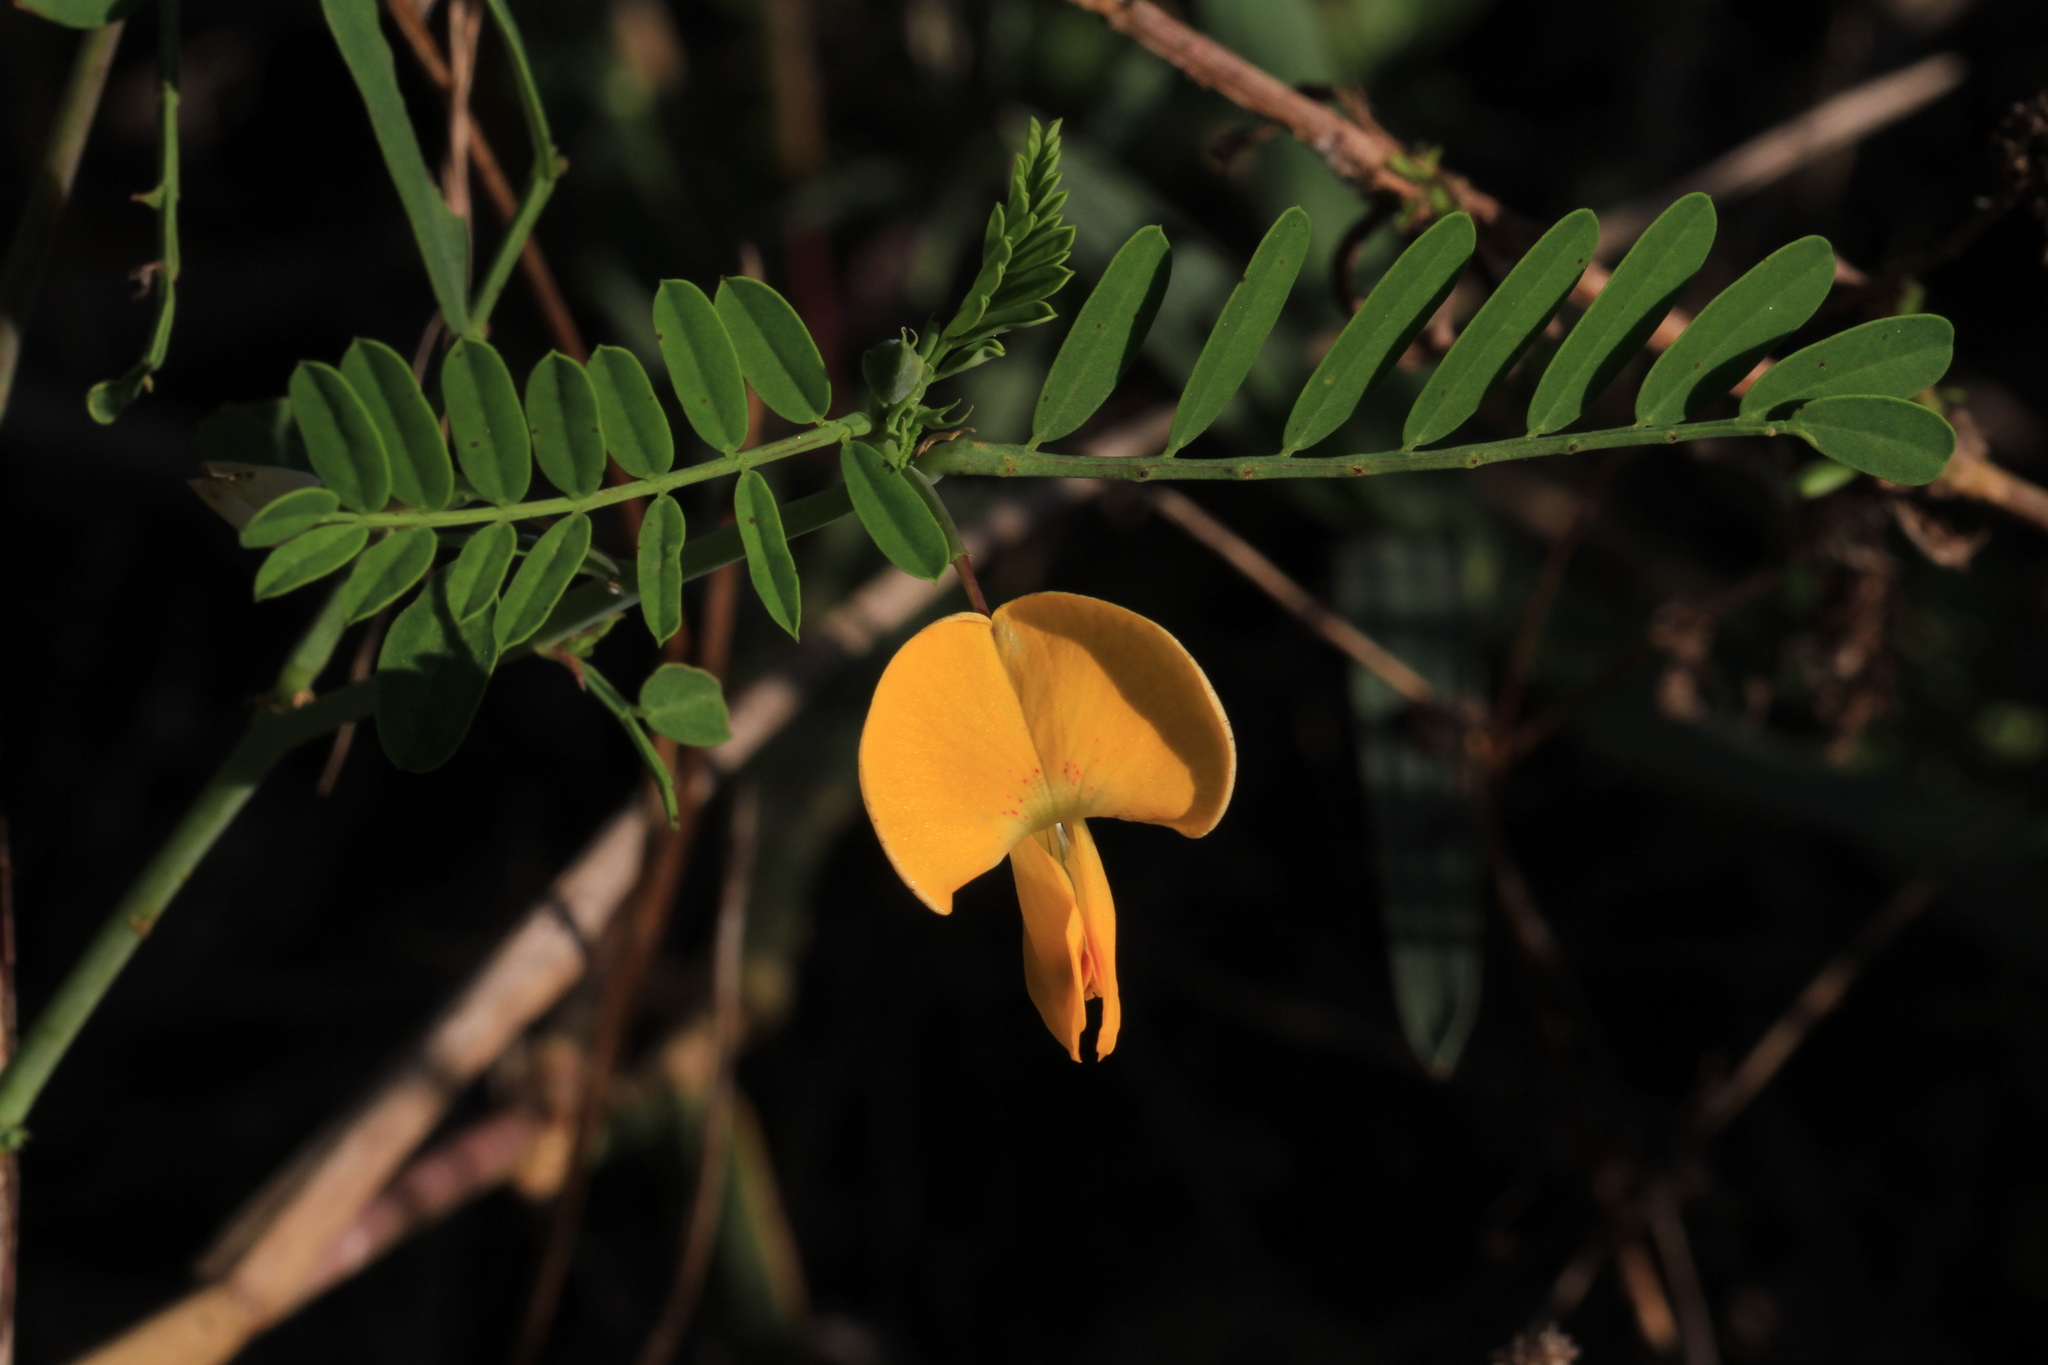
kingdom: Plantae
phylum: Tracheophyta
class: Magnoliopsida
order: Fabales
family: Fabaceae
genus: Sesbania
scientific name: Sesbania herbacea
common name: Bigpod sesbania
